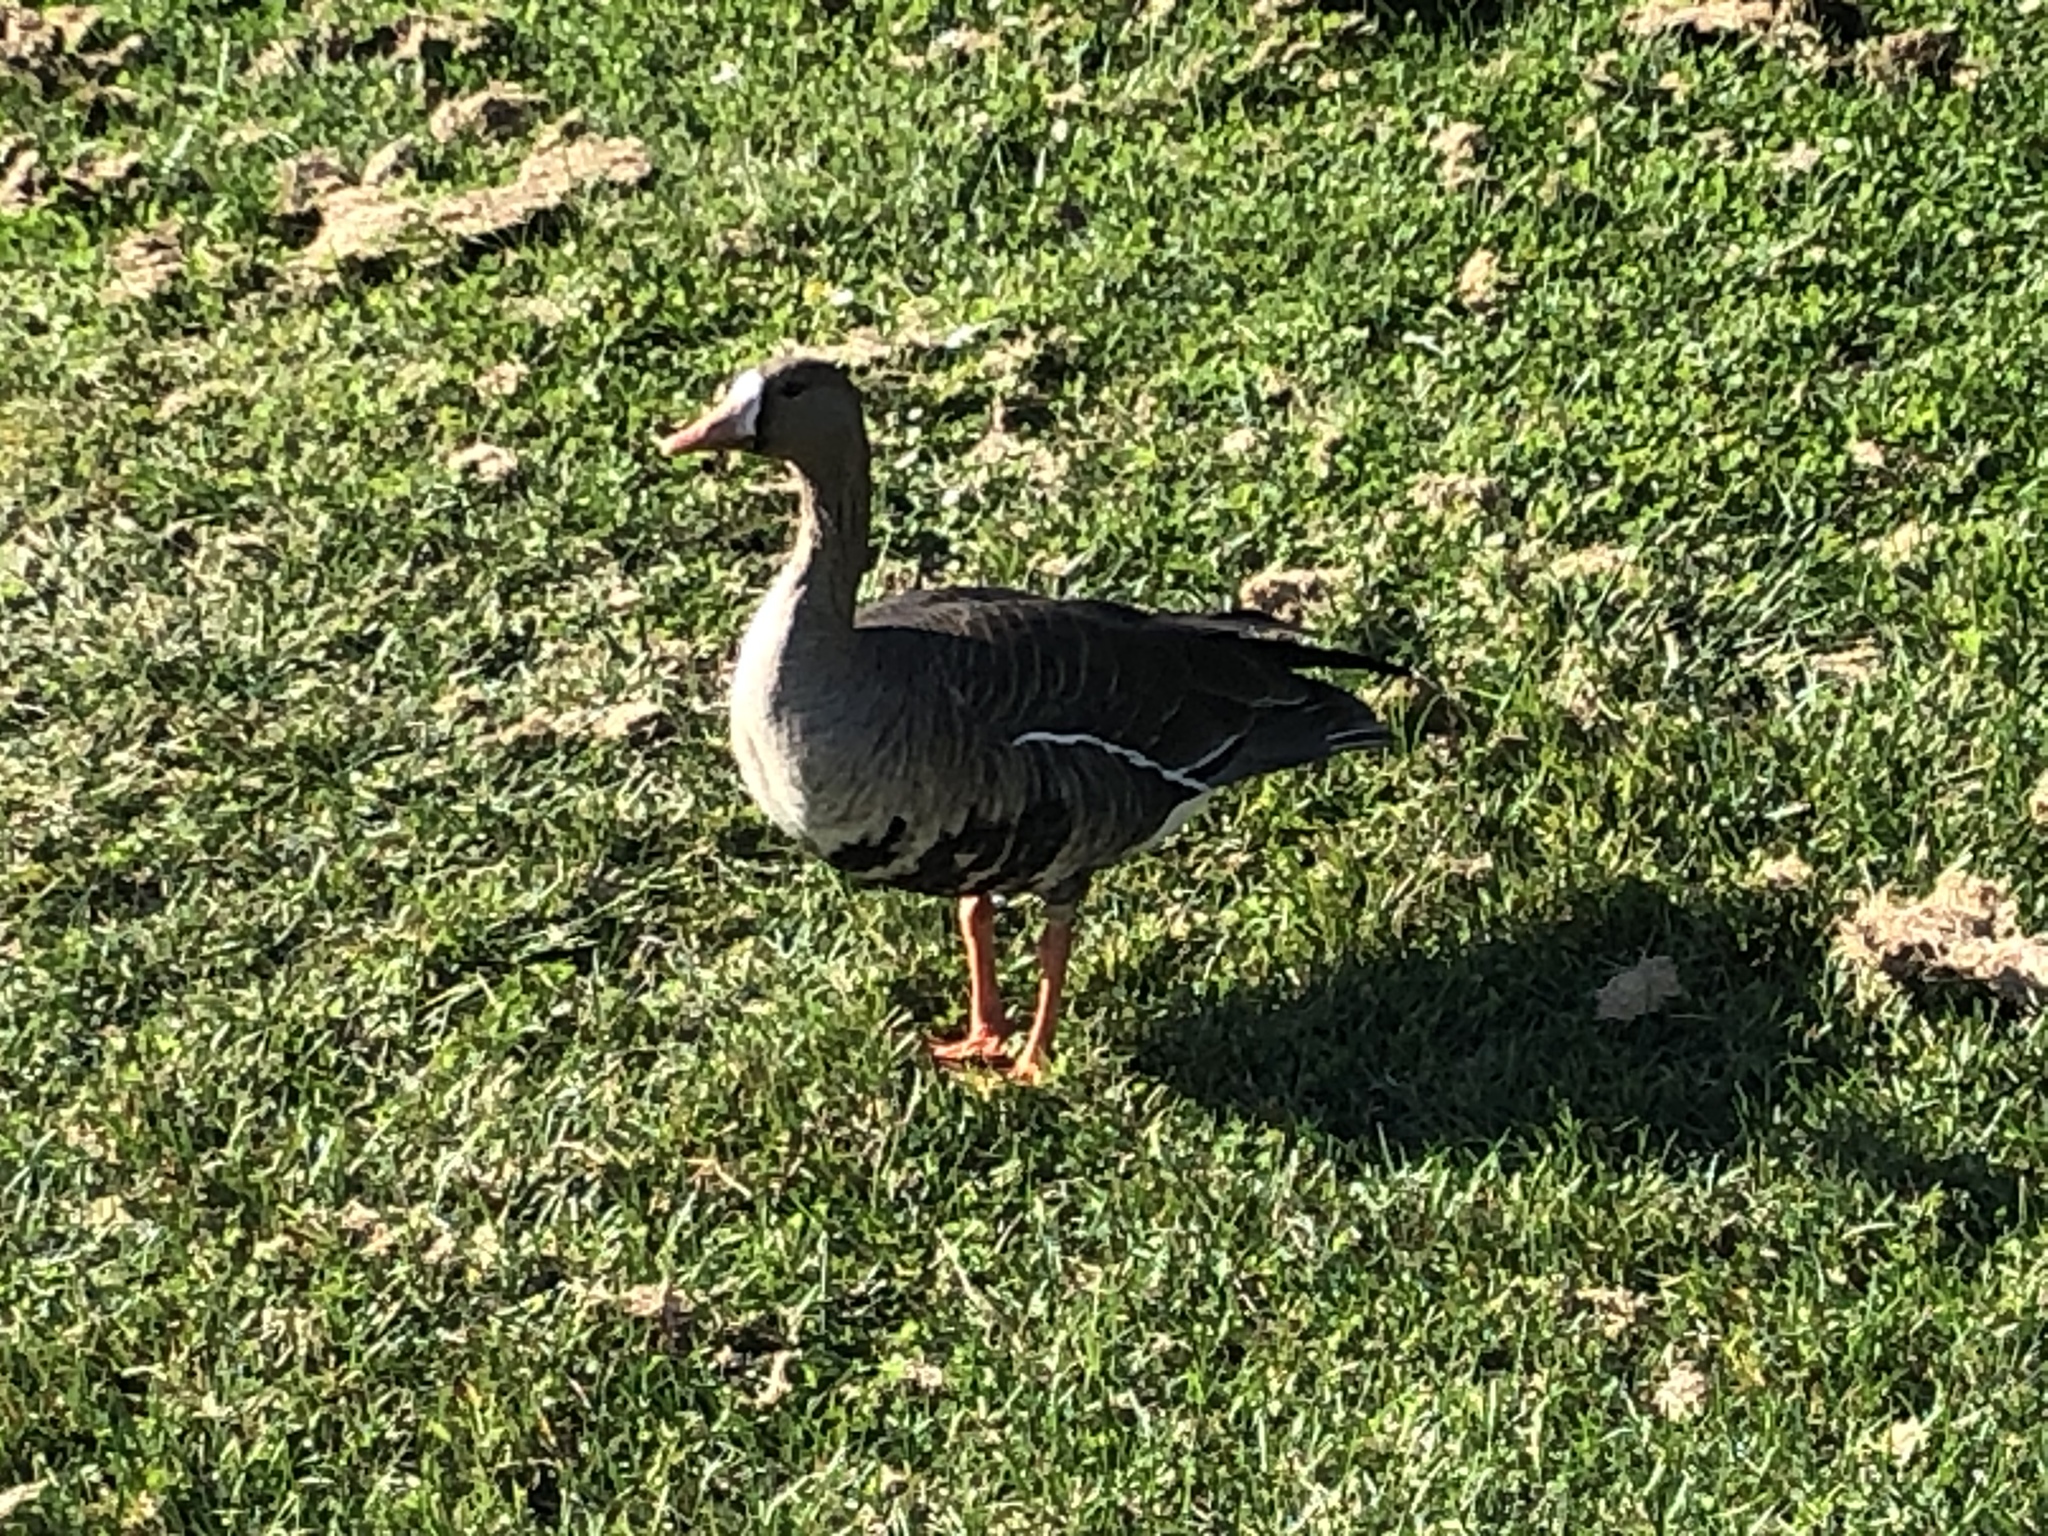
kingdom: Animalia
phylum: Chordata
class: Aves
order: Anseriformes
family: Anatidae
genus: Anser
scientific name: Anser albifrons
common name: Greater white-fronted goose
